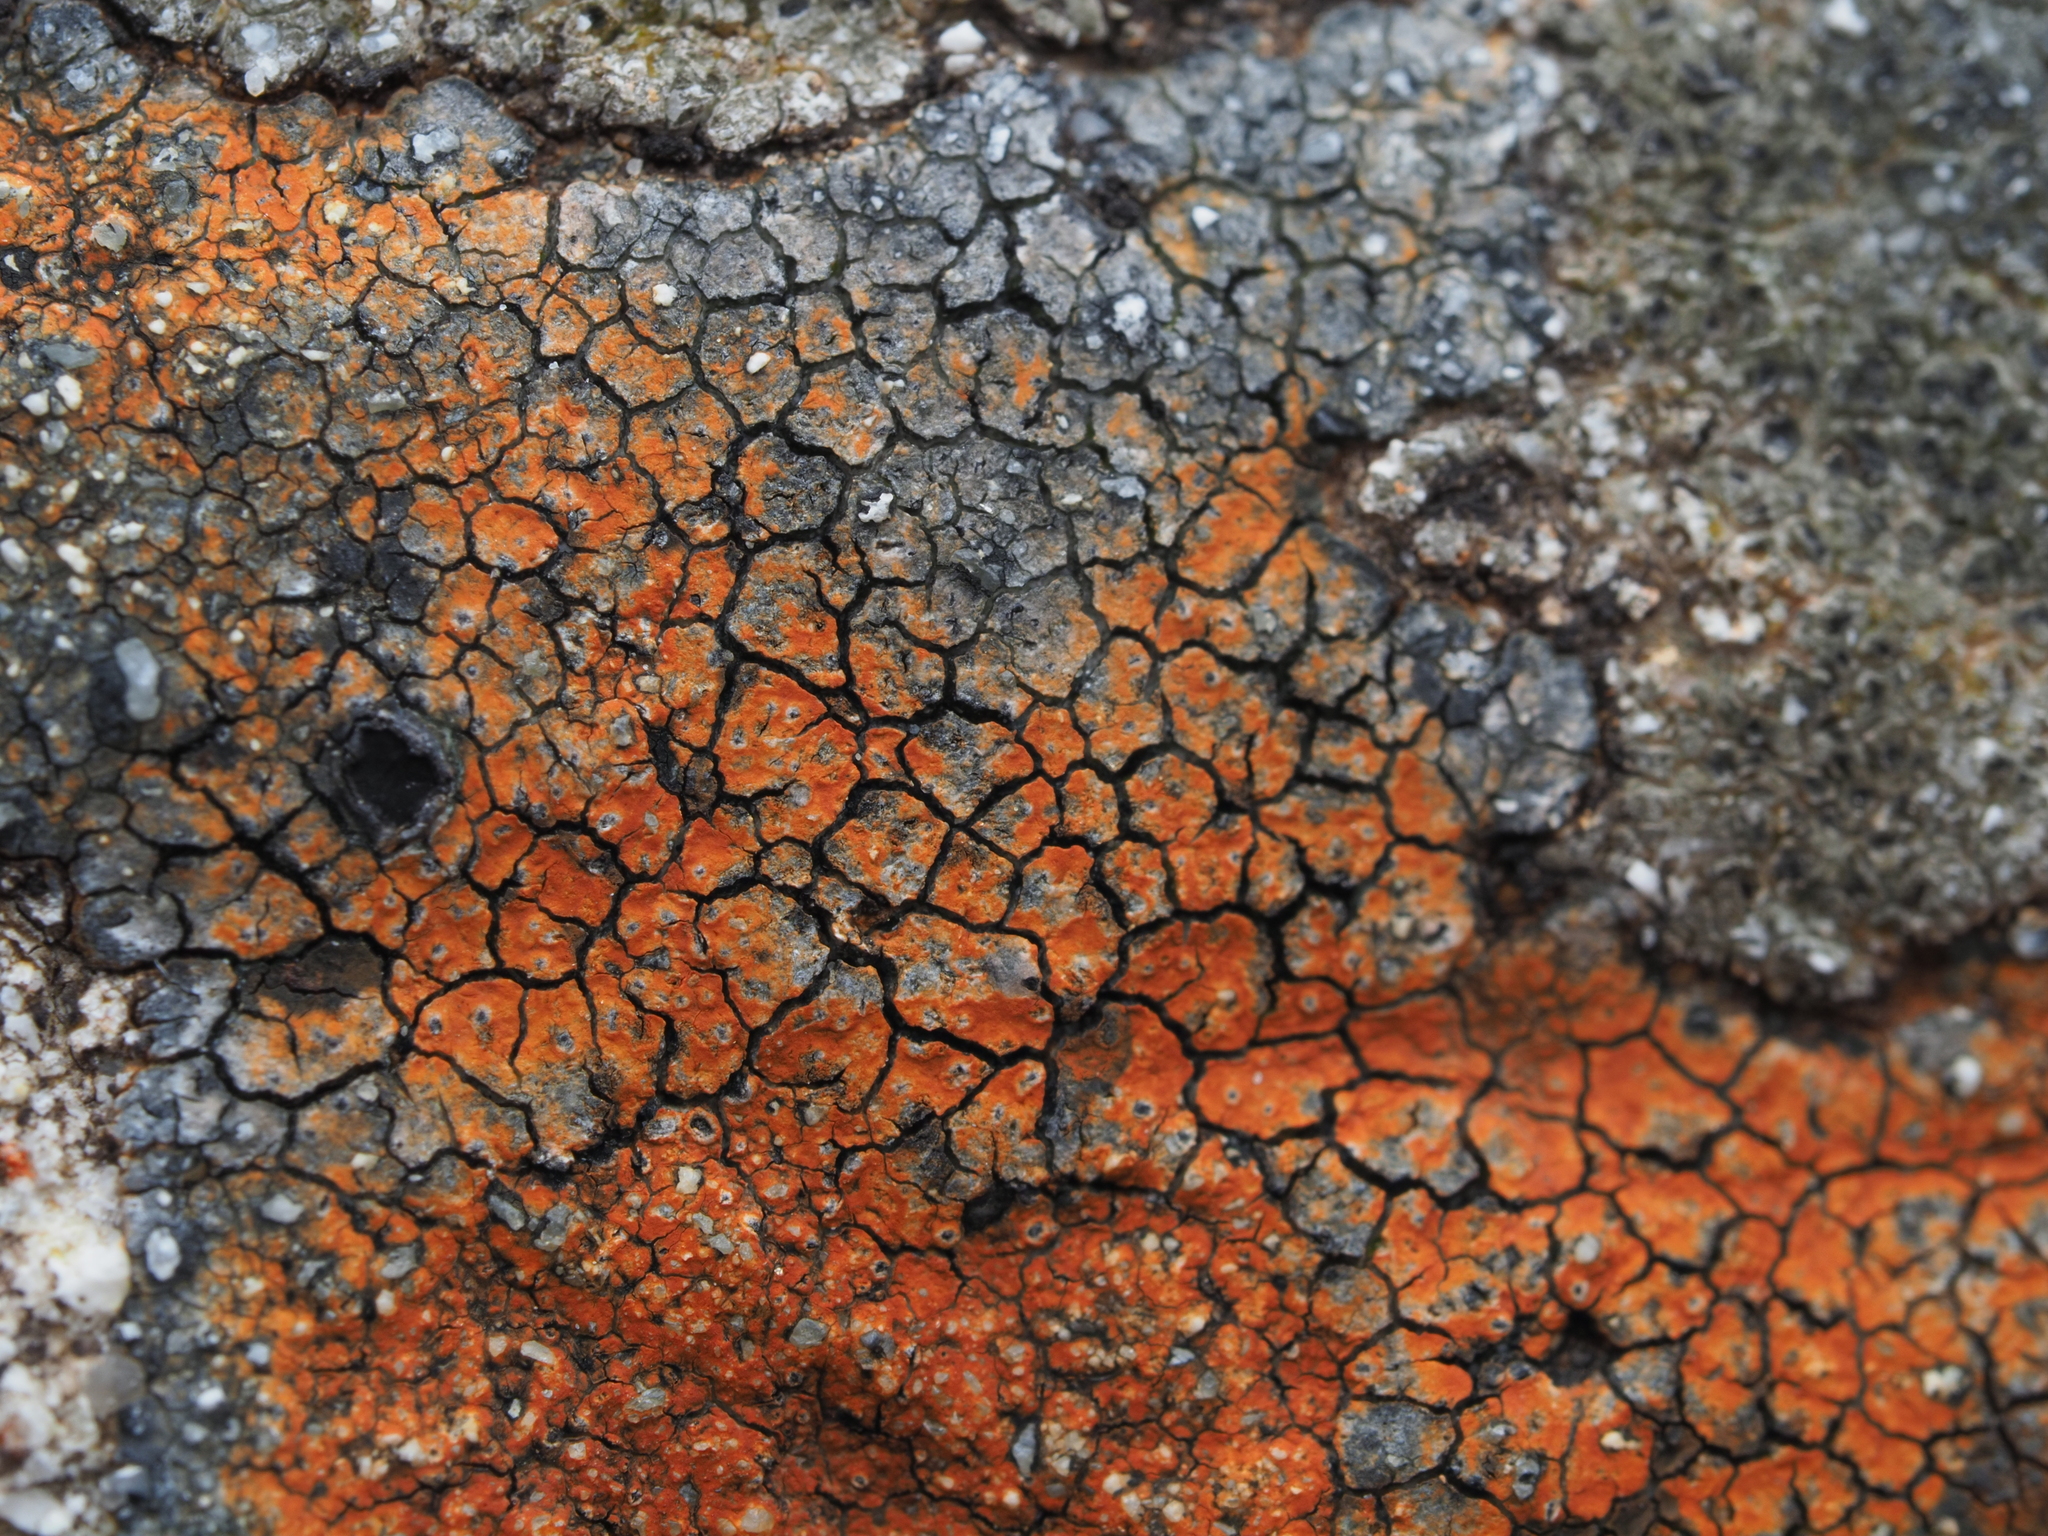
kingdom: Plantae
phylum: Tracheophyta
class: Magnoliopsida
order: Asterales
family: Asteraceae
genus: Lagenophora
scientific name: Lagenophora pumila
